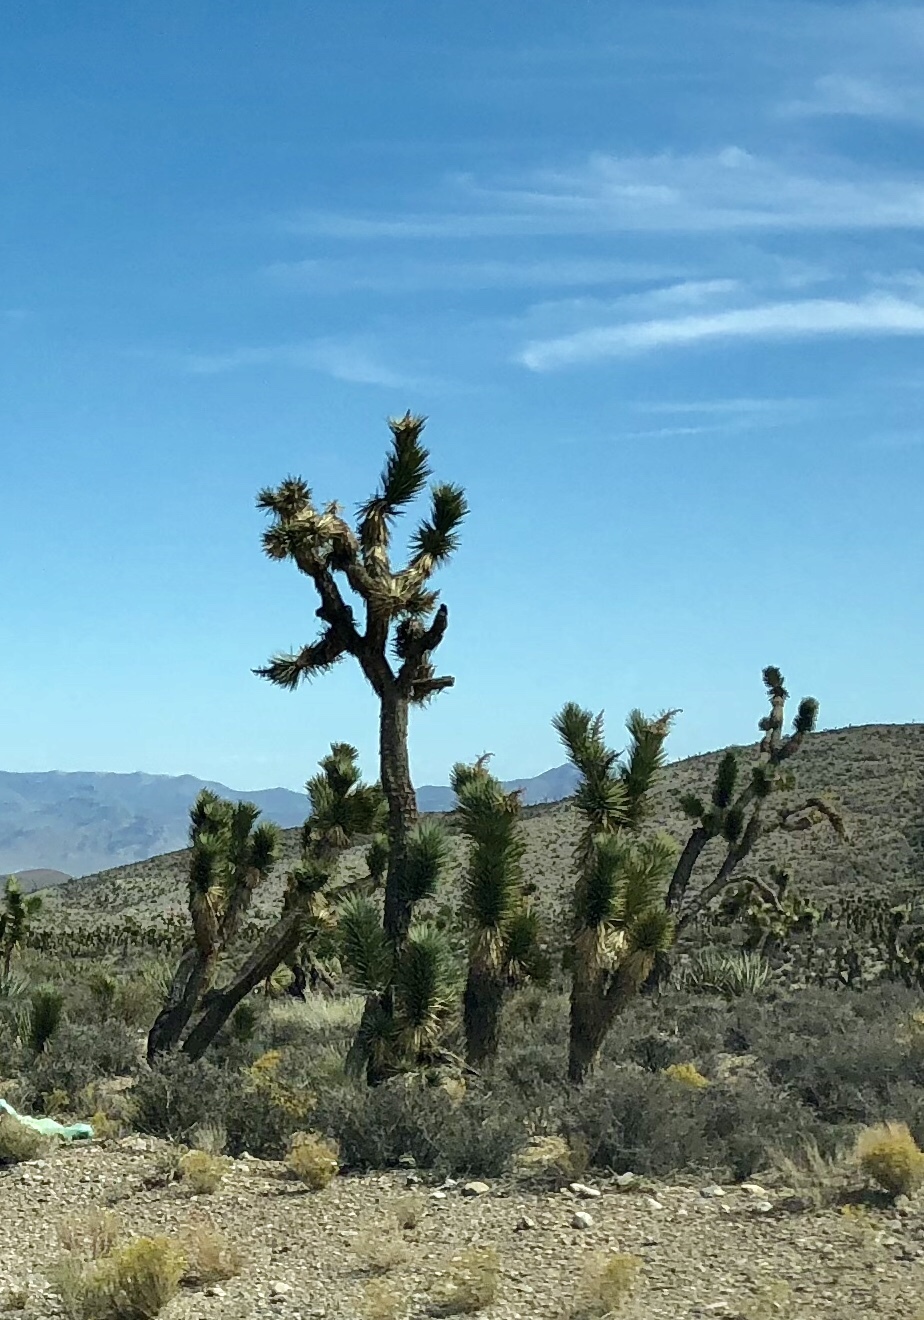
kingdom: Plantae
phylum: Tracheophyta
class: Liliopsida
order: Asparagales
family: Asparagaceae
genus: Yucca
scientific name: Yucca brevifolia
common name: Joshua tree
